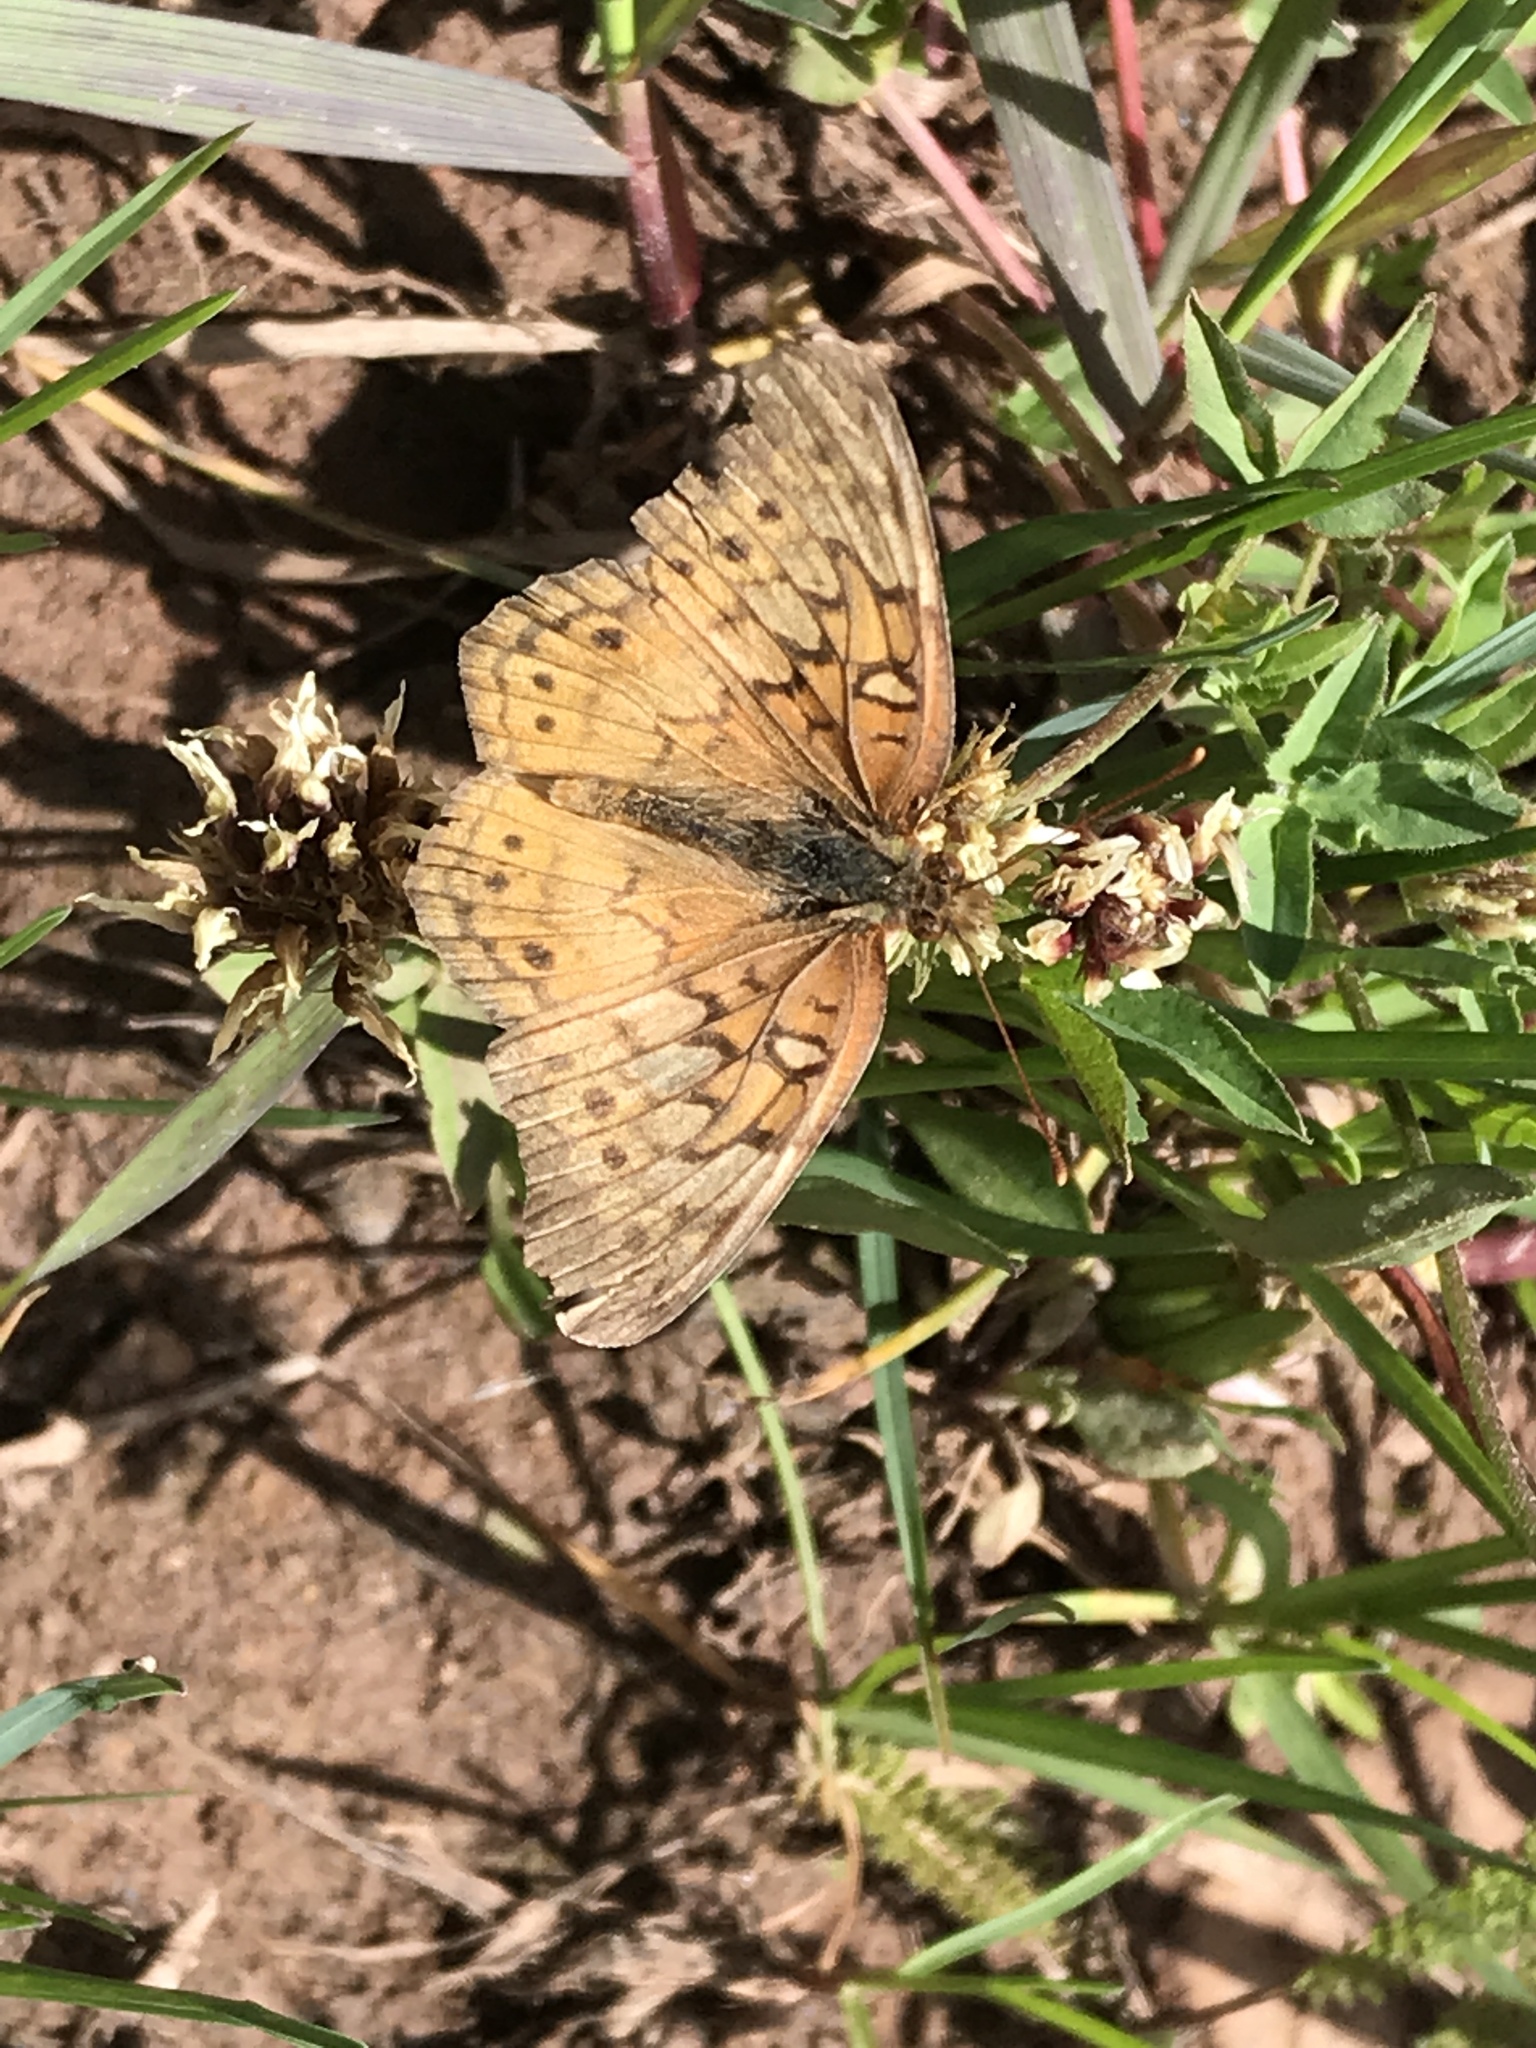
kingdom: Animalia
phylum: Arthropoda
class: Insecta
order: Lepidoptera
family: Nymphalidae
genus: Euptoieta
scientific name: Euptoieta claudia
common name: Variegated fritillary
